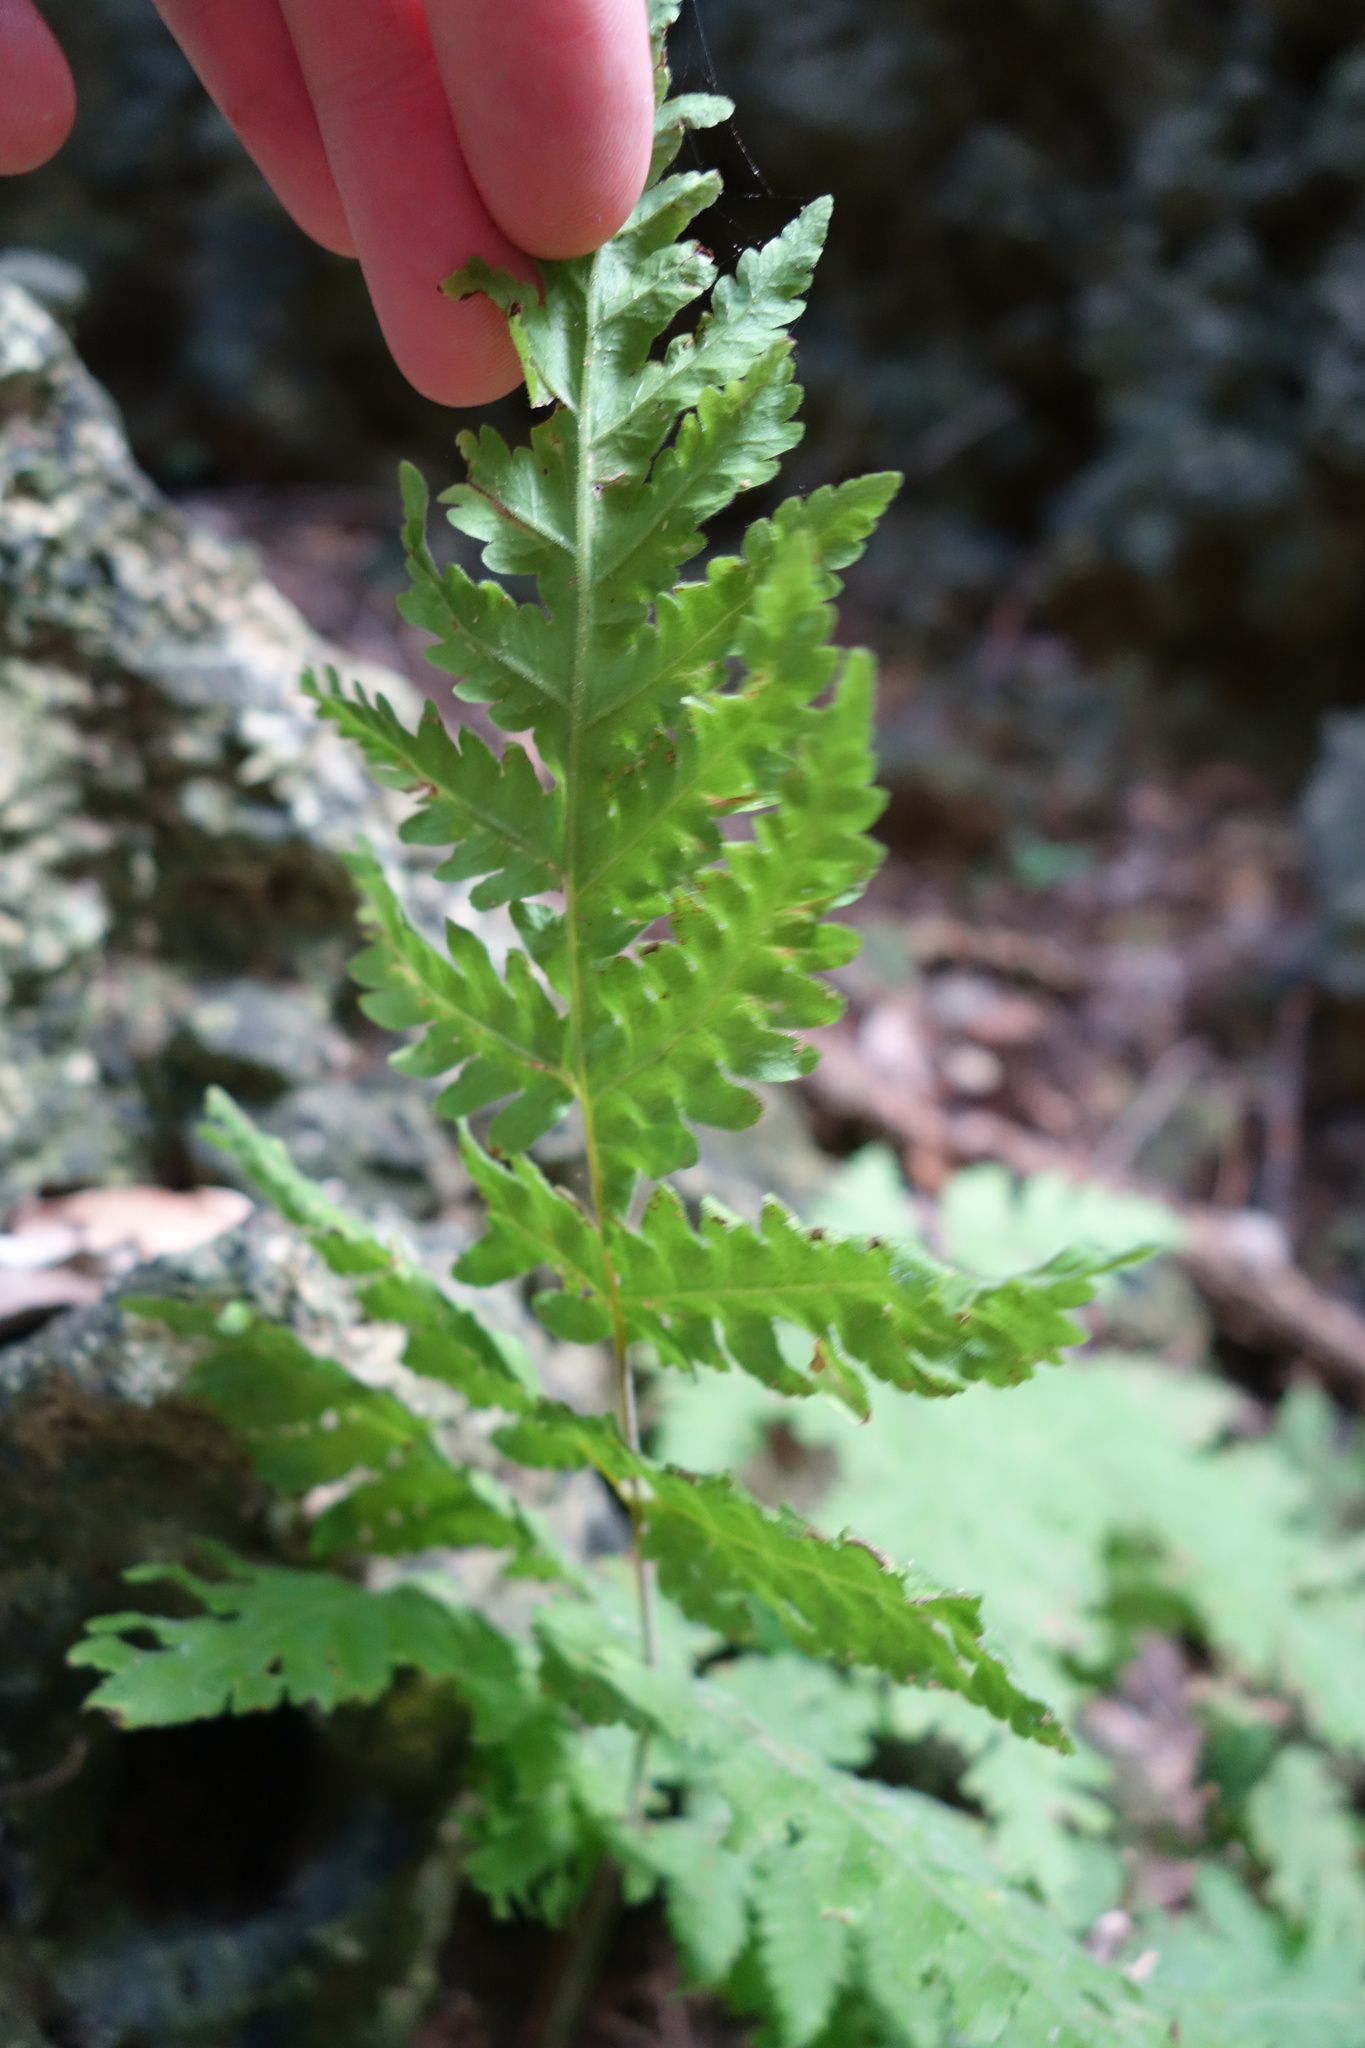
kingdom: Plantae
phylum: Tracheophyta
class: Polypodiopsida
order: Polypodiales
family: Tectariaceae
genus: Tectaria
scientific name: Tectaria membranacea
